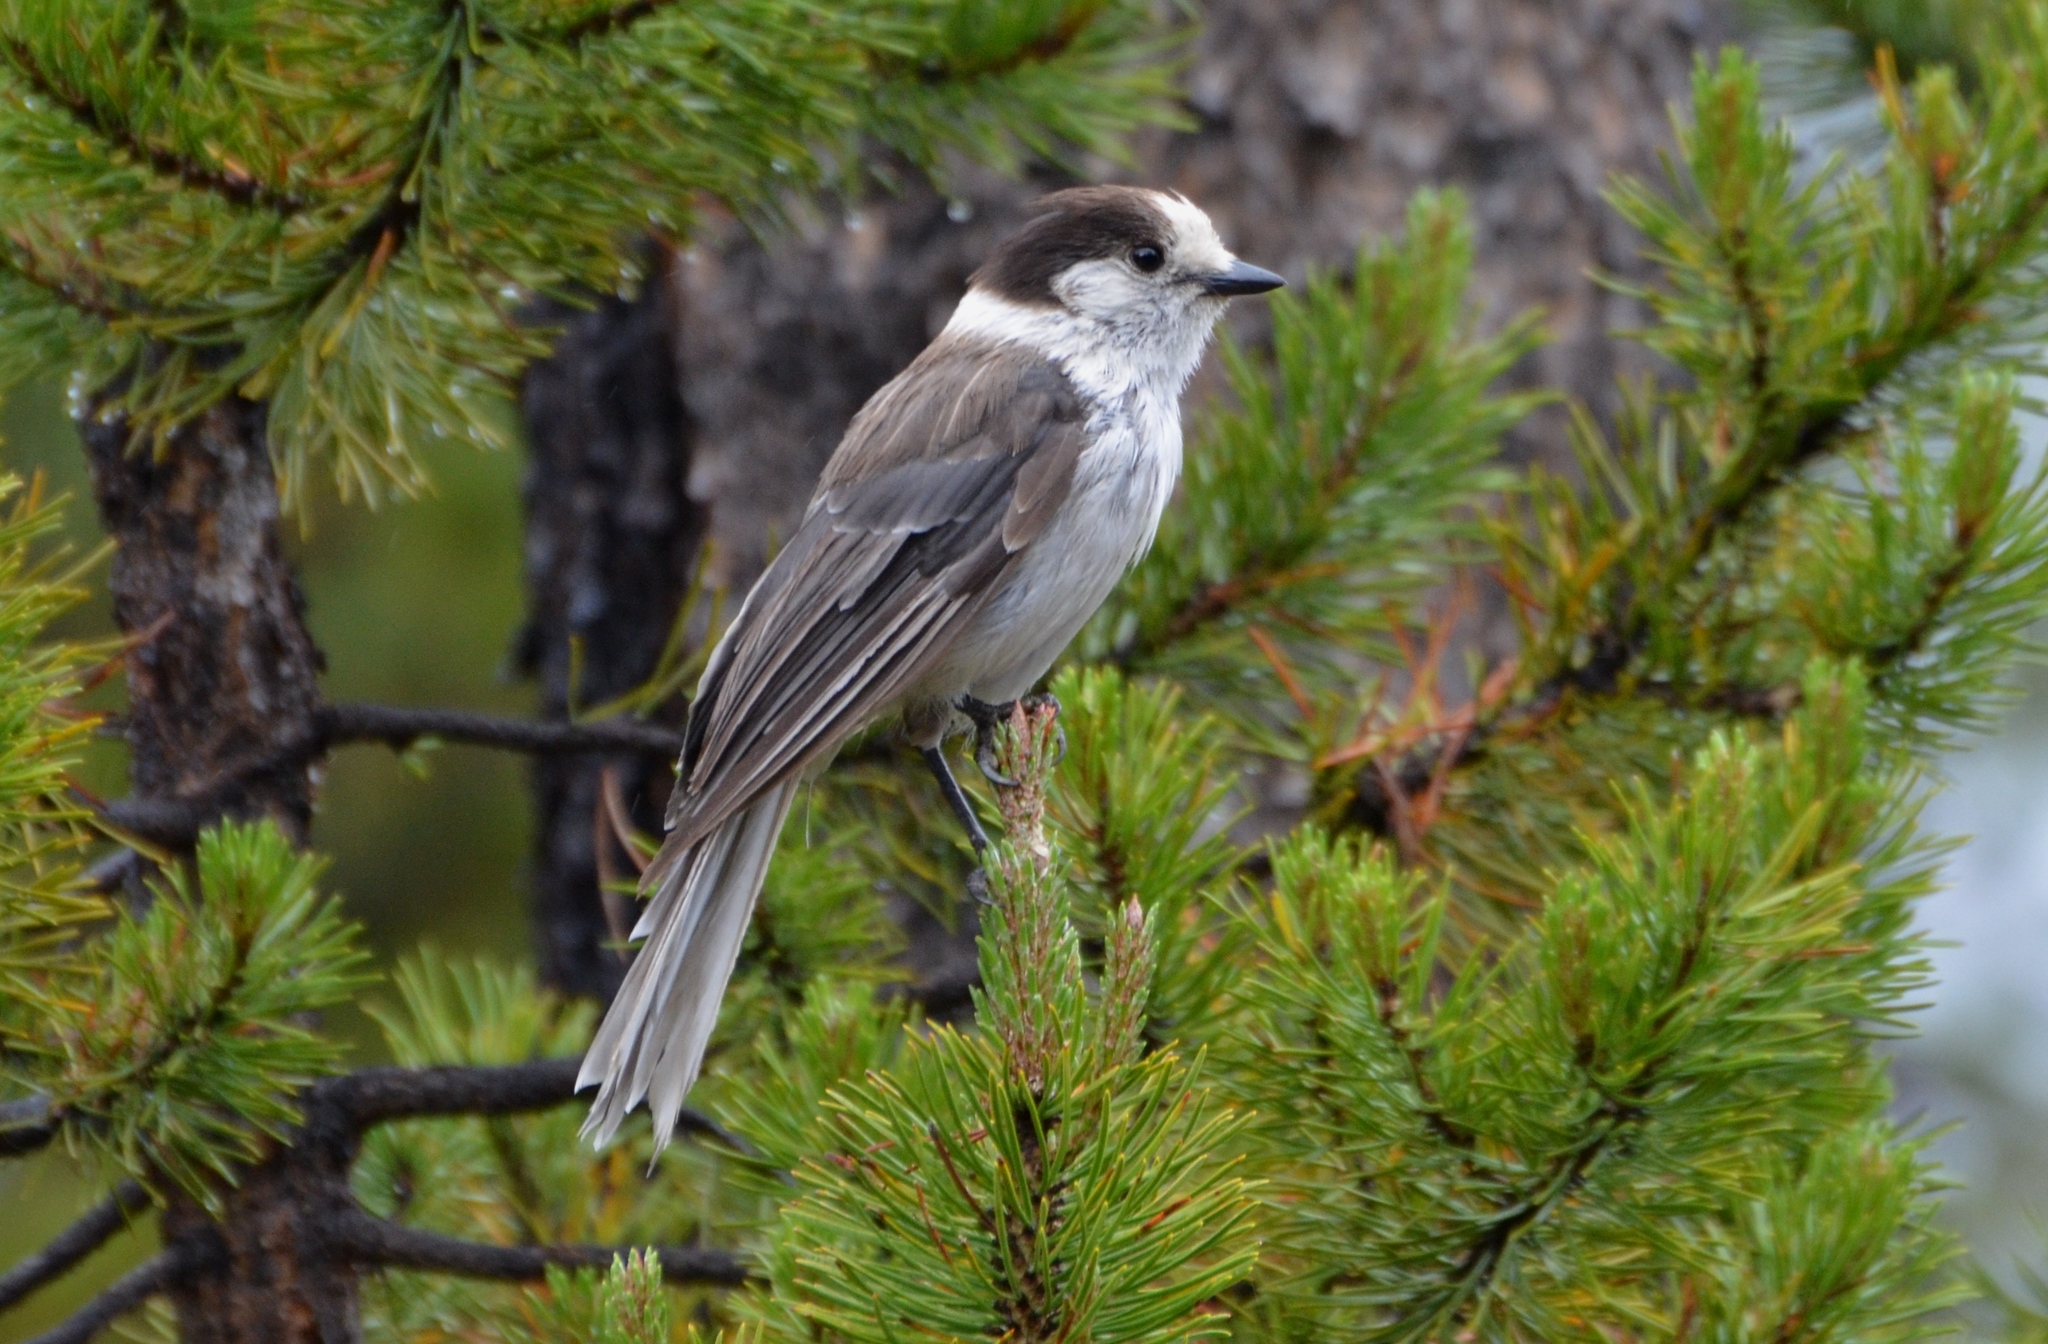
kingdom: Animalia
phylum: Chordata
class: Aves
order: Passeriformes
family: Corvidae
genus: Perisoreus
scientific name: Perisoreus canadensis
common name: Gray jay
